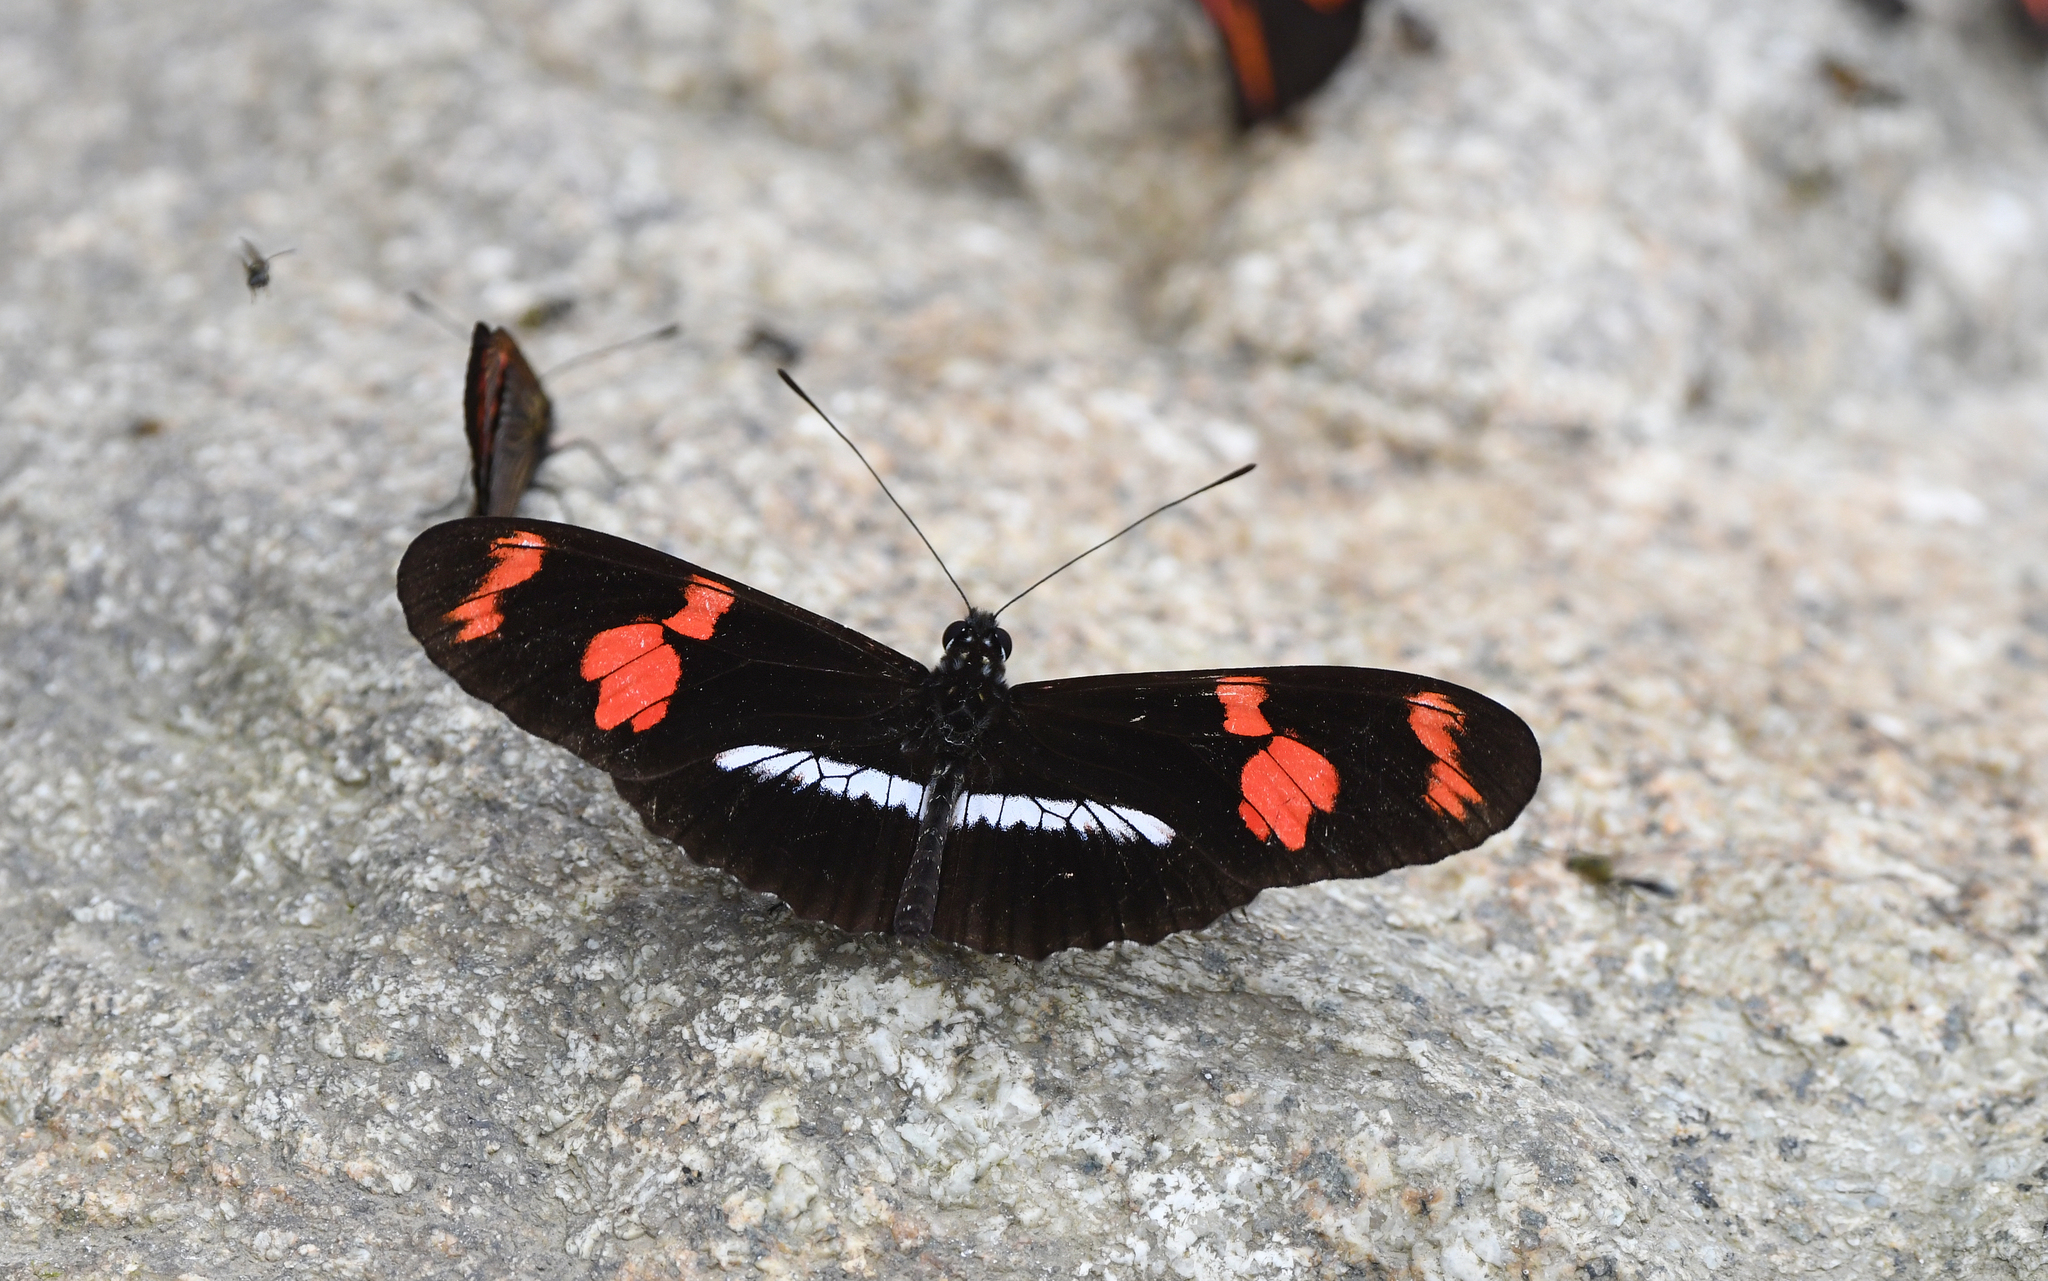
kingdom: Animalia
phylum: Arthropoda
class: Insecta
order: Lepidoptera
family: Nymphalidae
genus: Heliconius
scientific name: Heliconius telesiphe
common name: Telesiphe longwing
